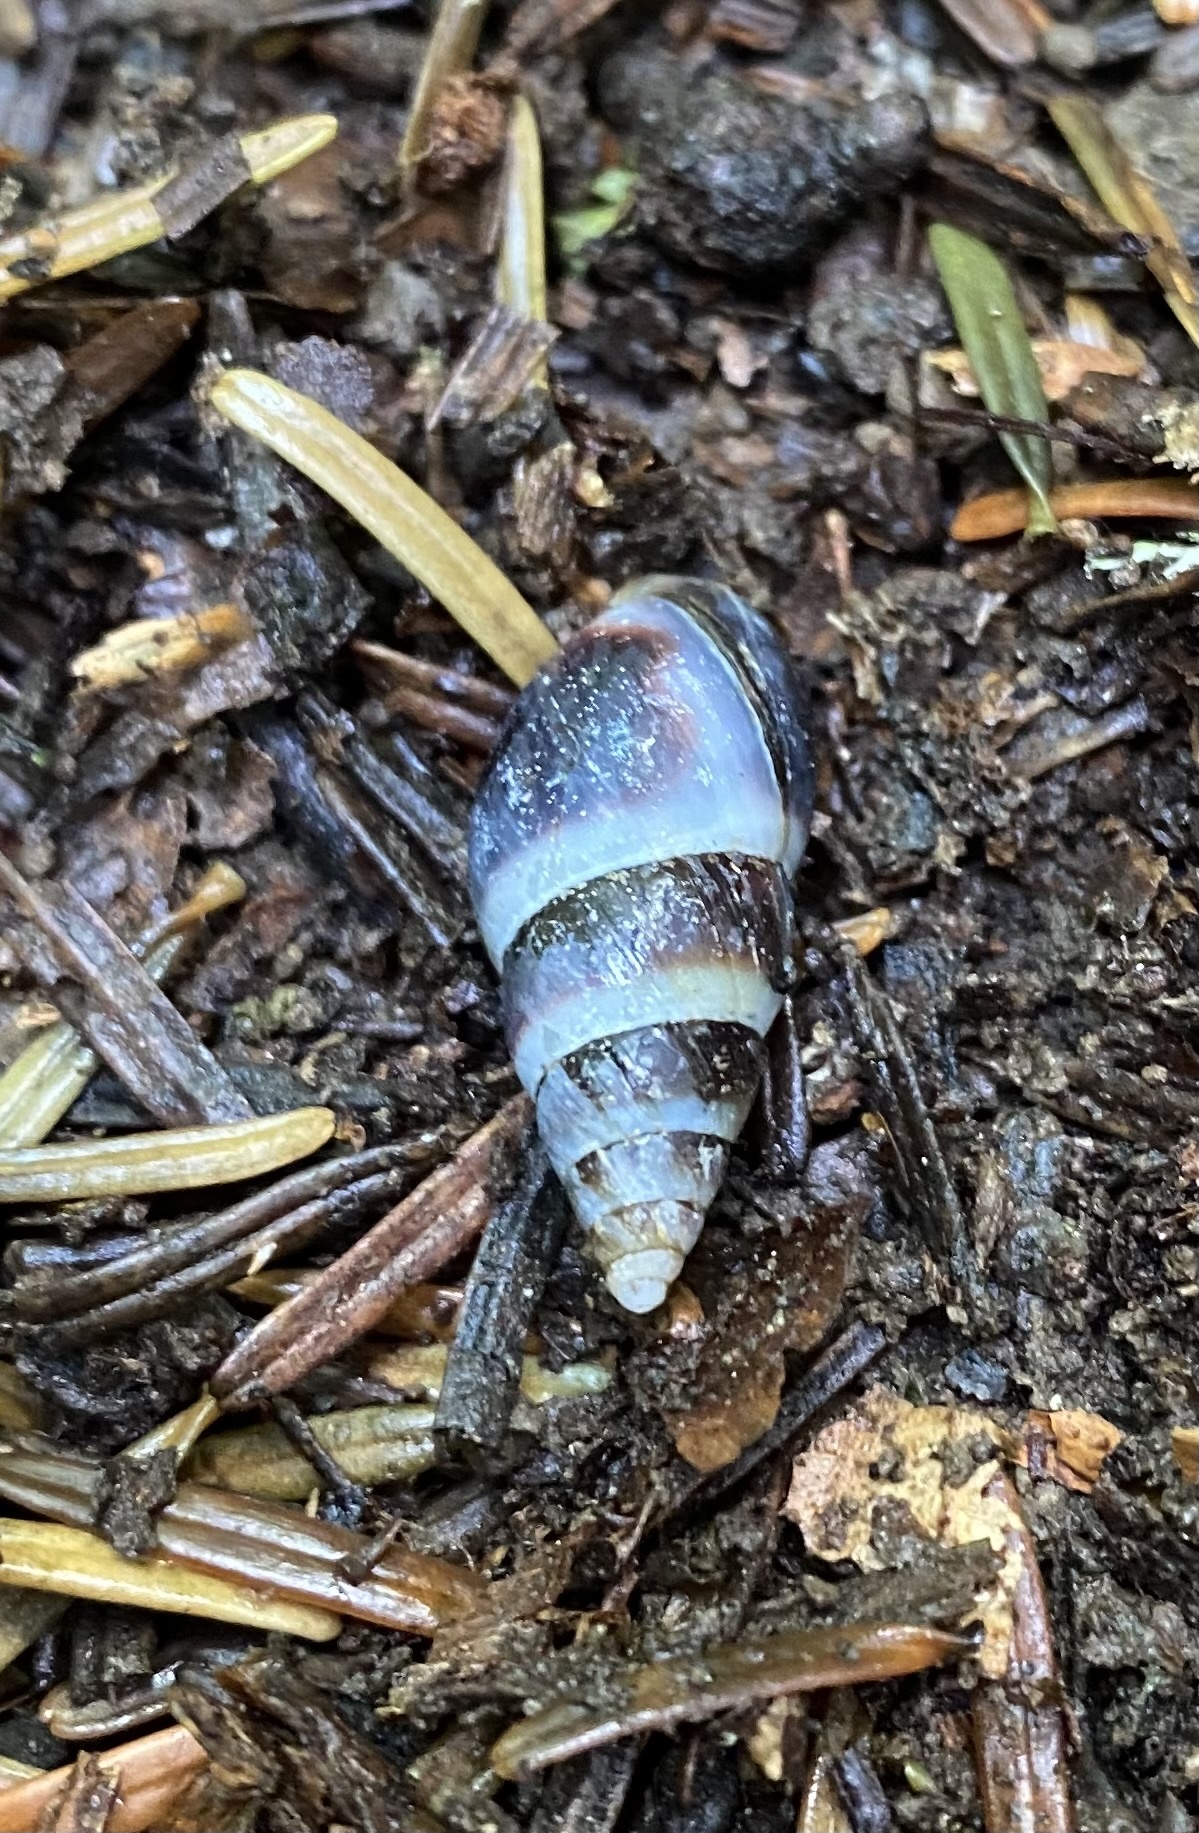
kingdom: Animalia
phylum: Mollusca
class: Gastropoda
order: Stylommatophora
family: Enidae
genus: Caucasicola
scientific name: Caucasicola raddei
